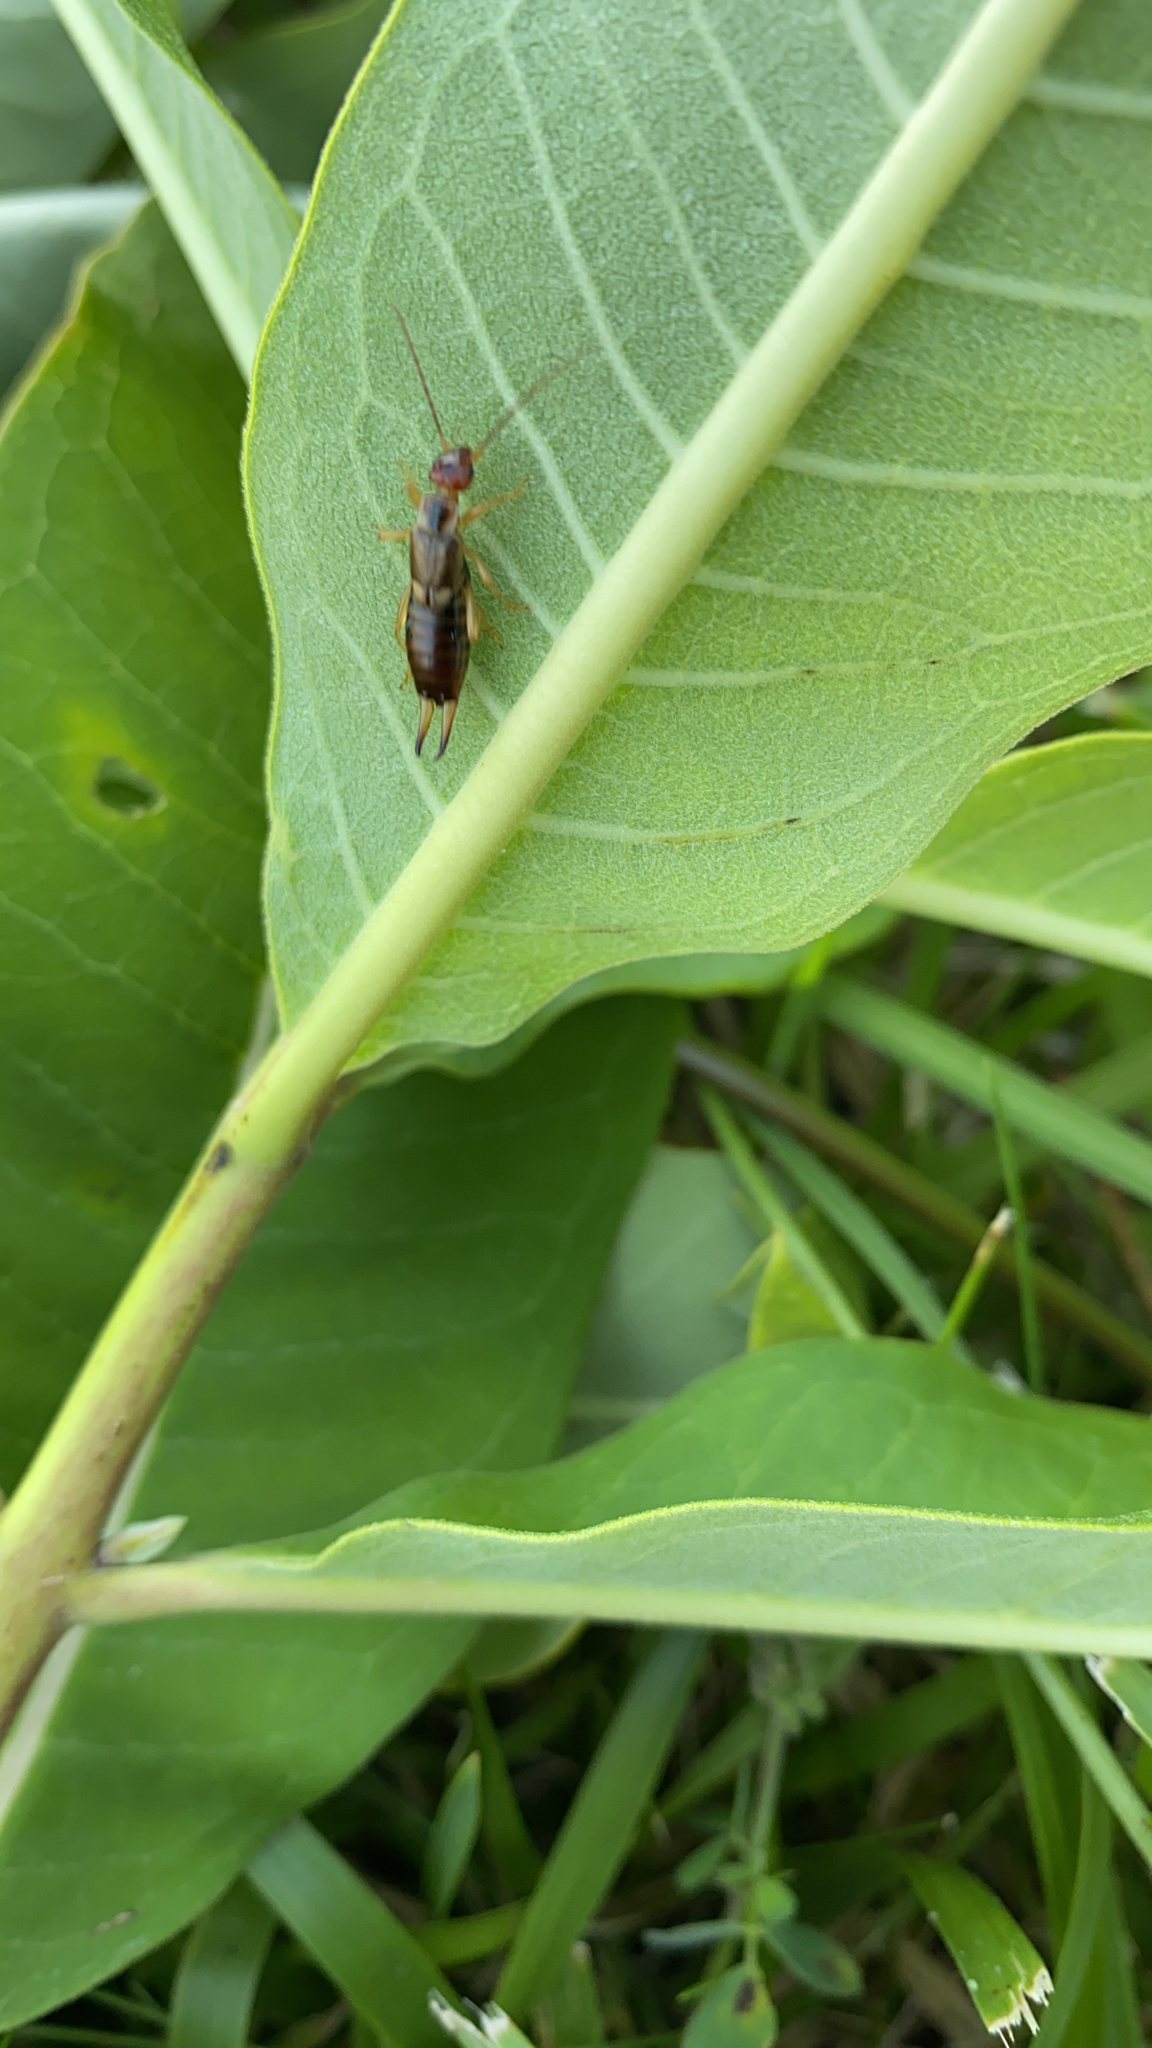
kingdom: Animalia
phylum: Arthropoda
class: Insecta
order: Dermaptera
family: Forficulidae
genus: Forficula
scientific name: Forficula
